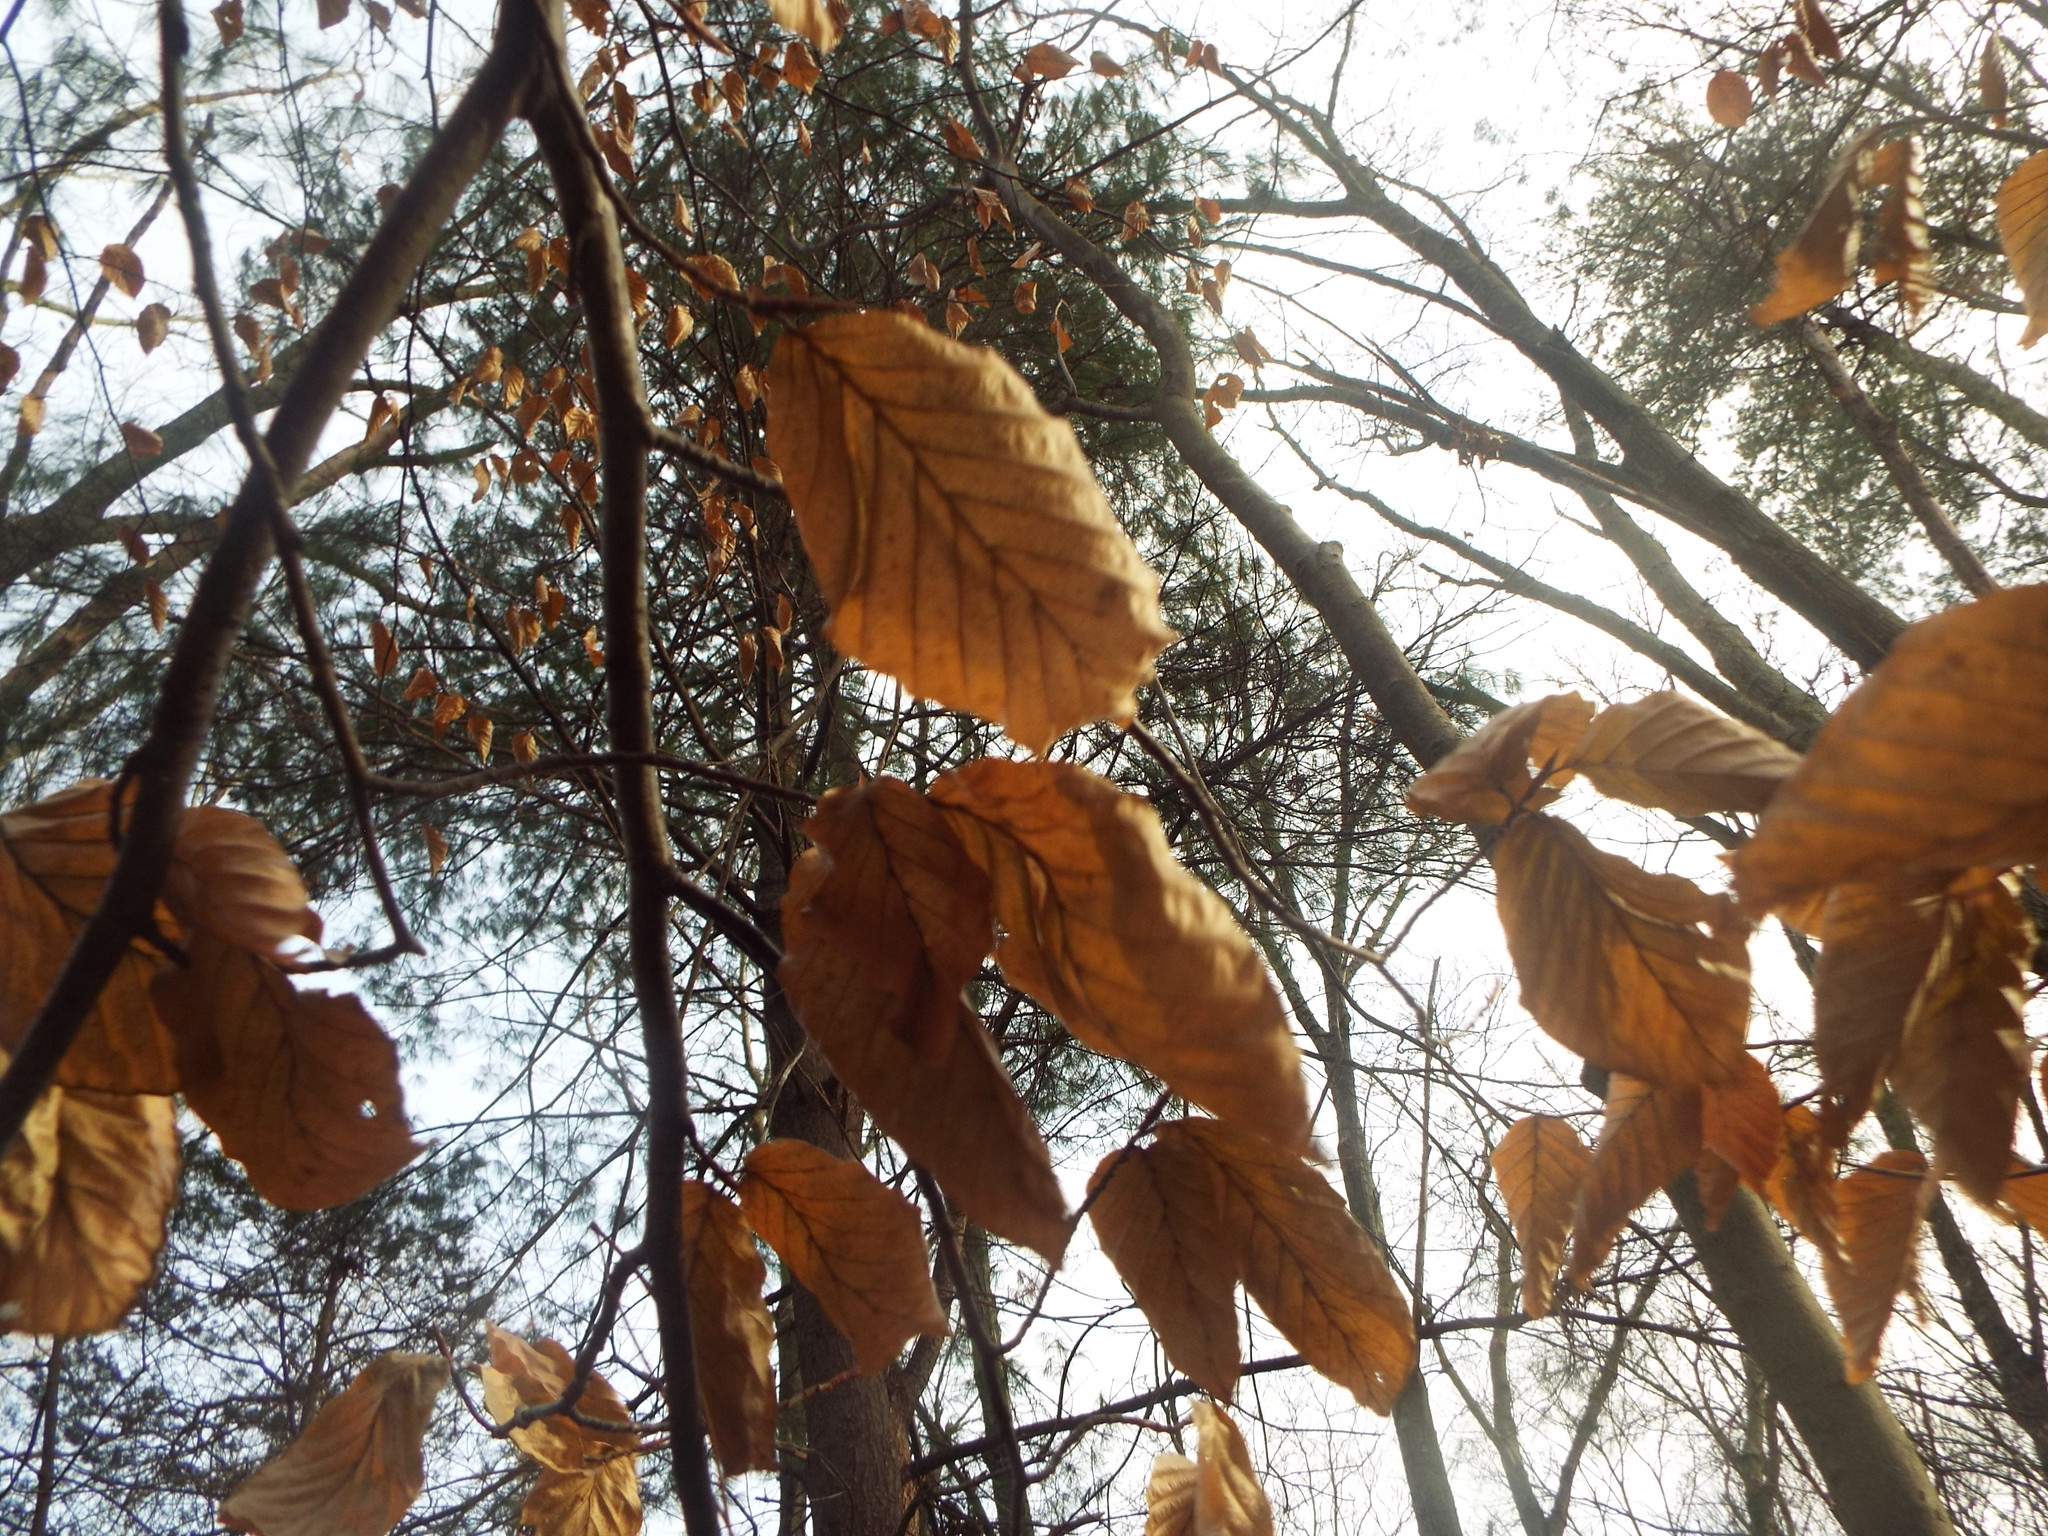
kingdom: Plantae
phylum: Tracheophyta
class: Magnoliopsida
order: Fagales
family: Fagaceae
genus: Fagus
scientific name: Fagus grandifolia
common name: American beech
